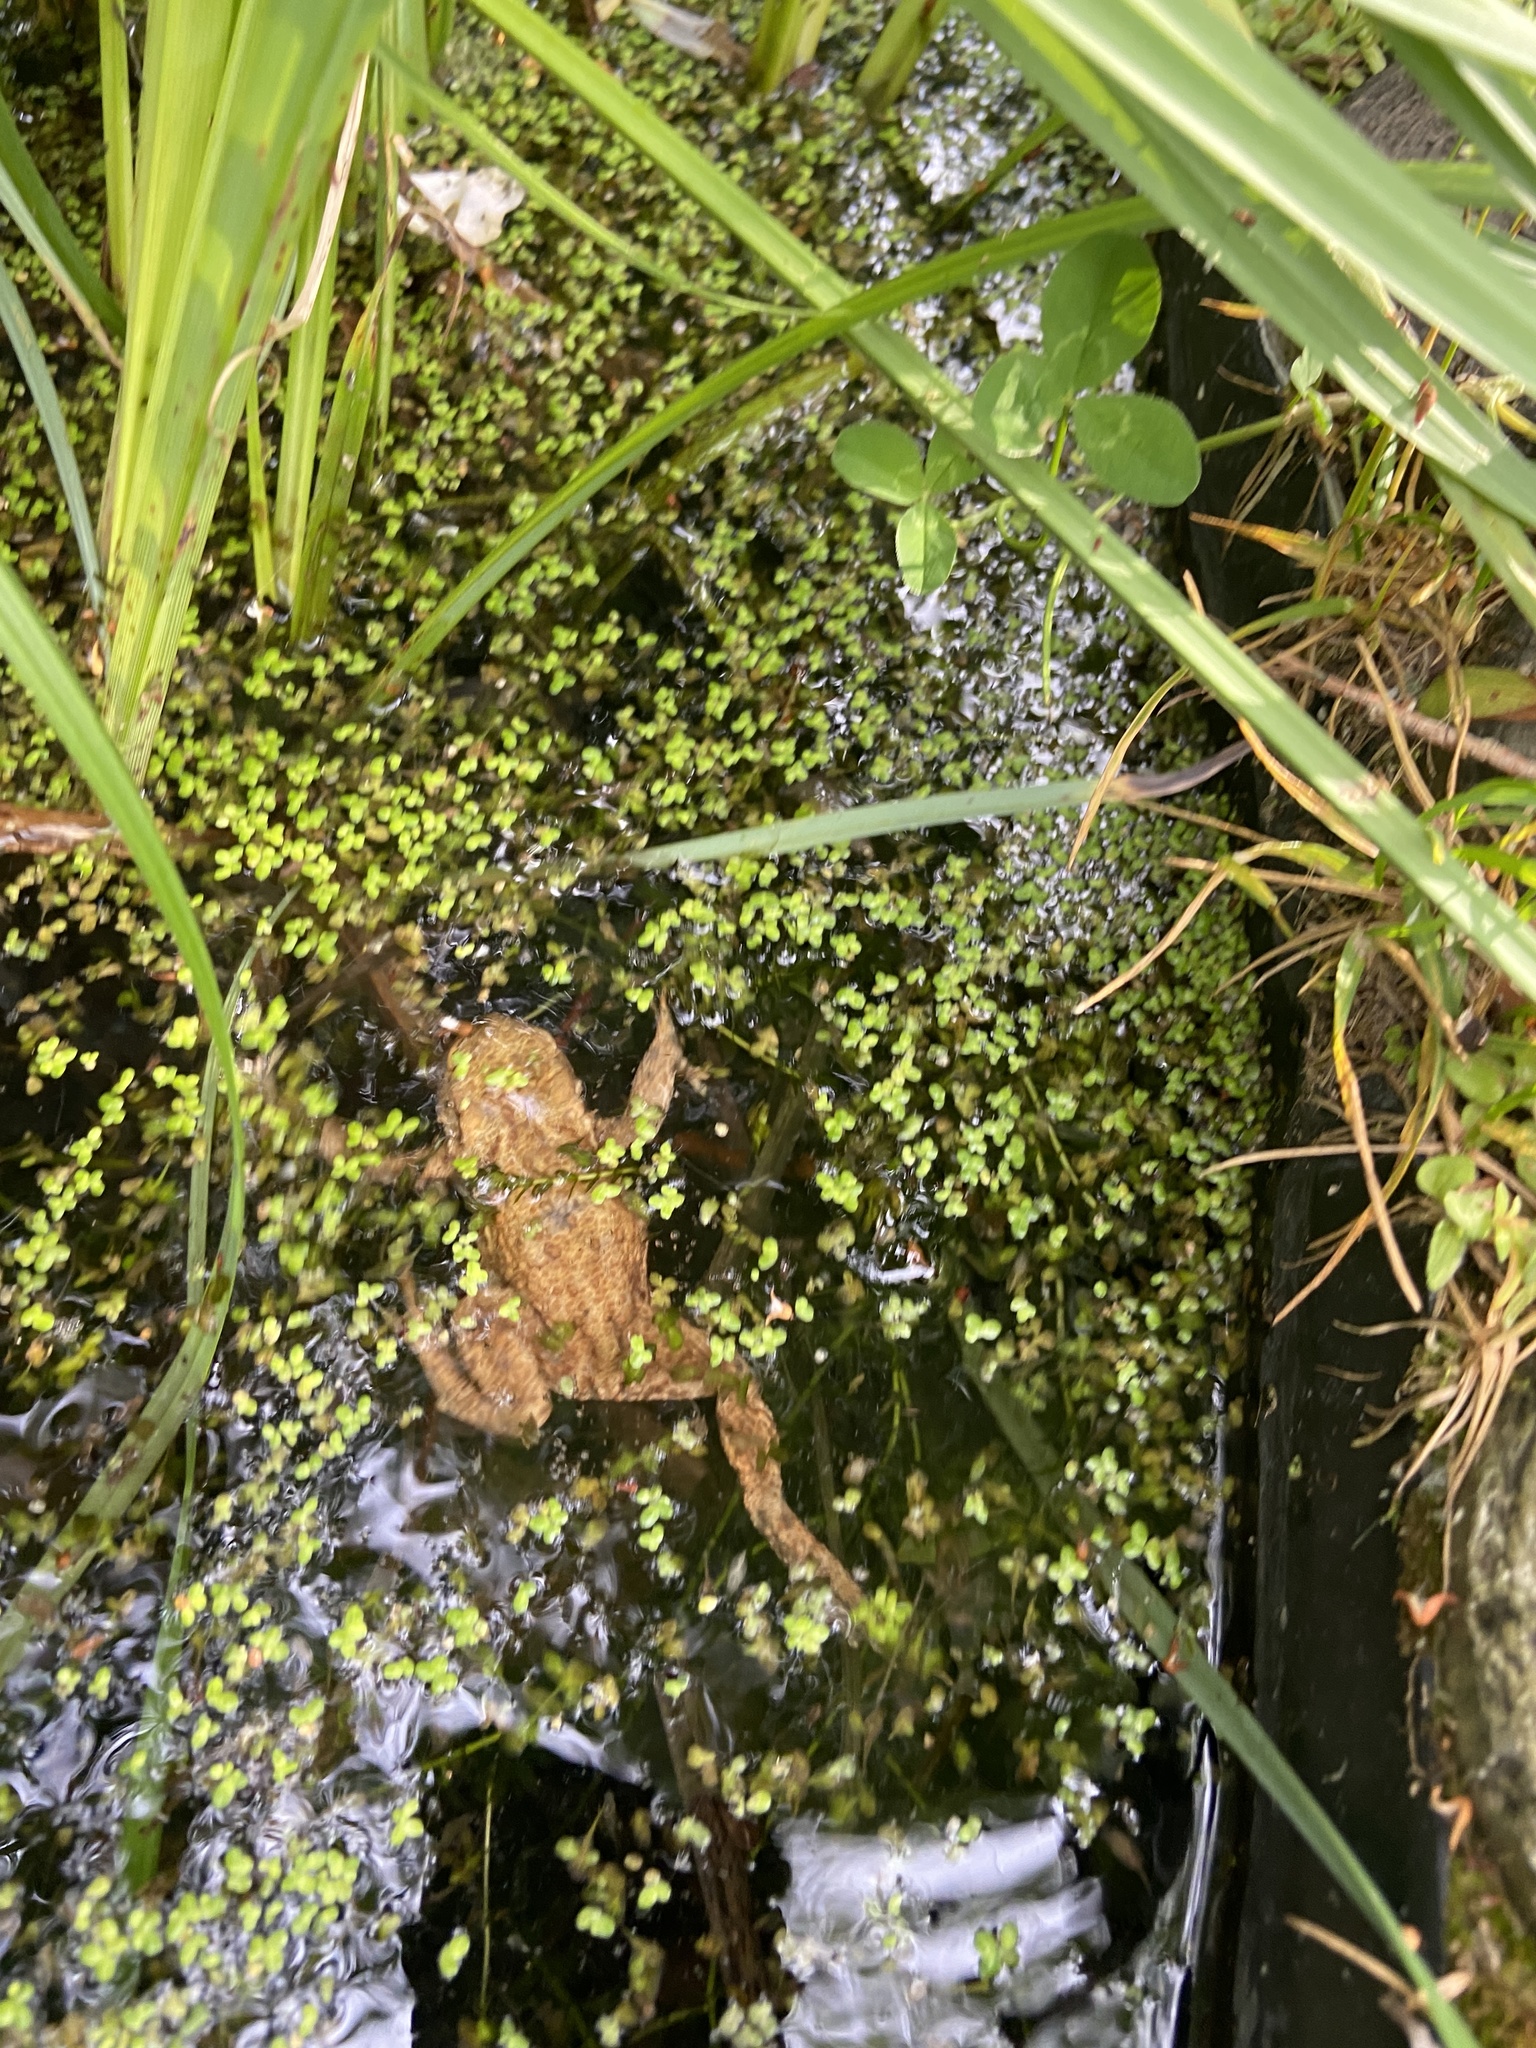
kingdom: Animalia
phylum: Chordata
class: Amphibia
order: Anura
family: Bufonidae
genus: Bufo
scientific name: Bufo bufo
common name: Common toad
